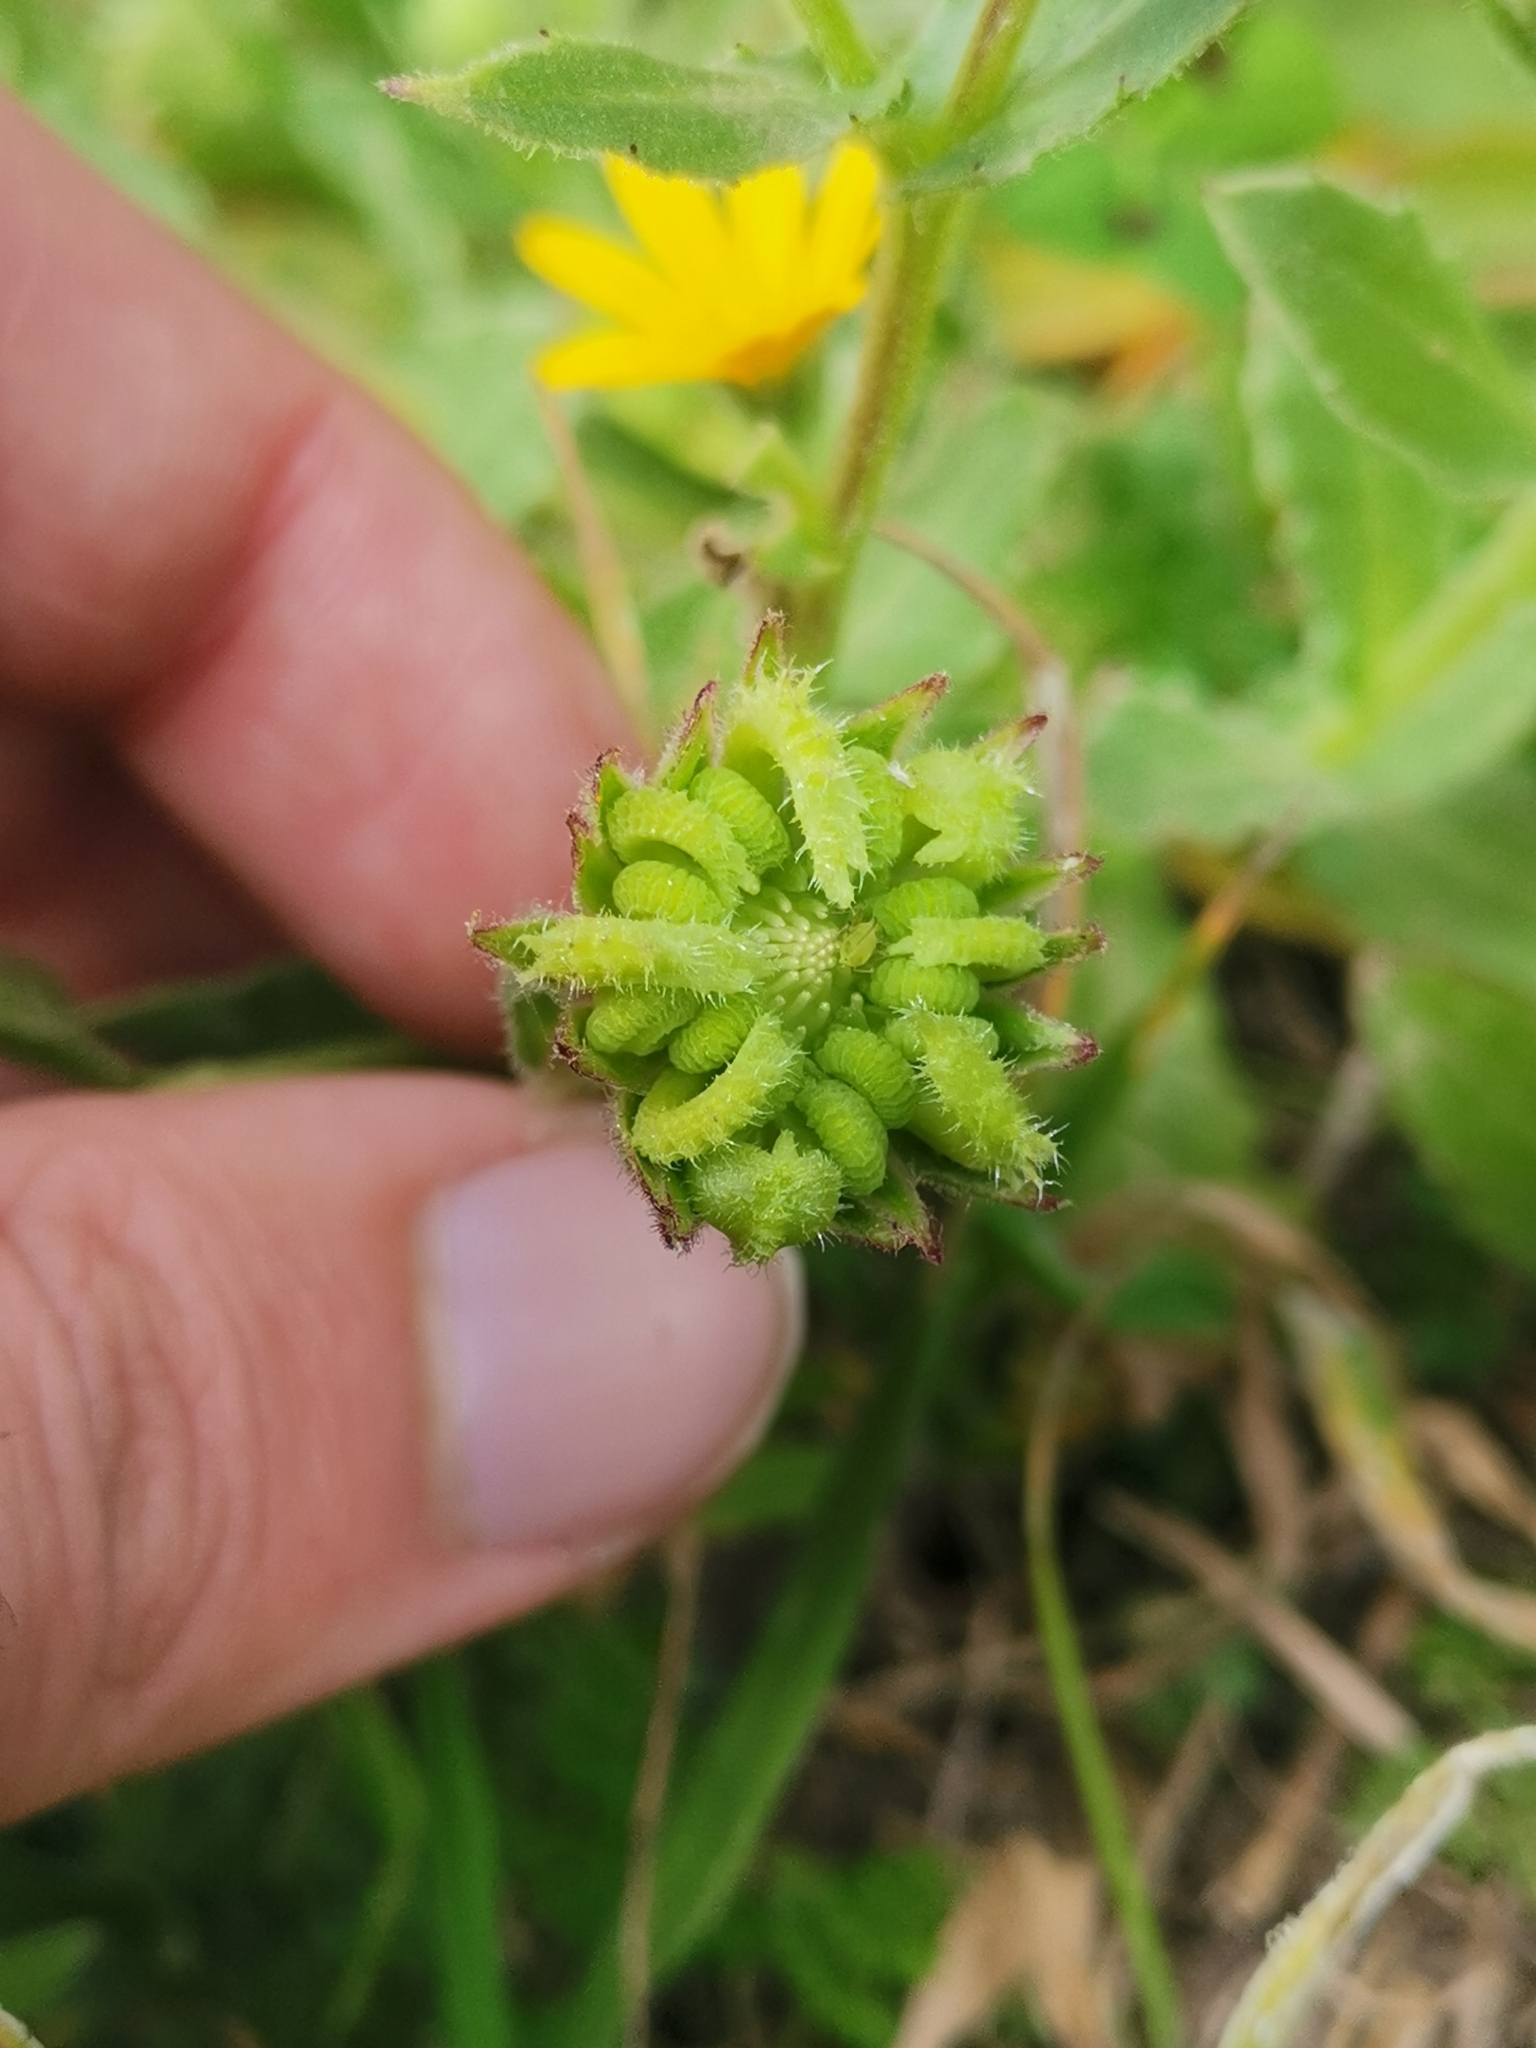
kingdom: Plantae
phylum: Tracheophyta
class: Magnoliopsida
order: Asterales
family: Asteraceae
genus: Calendula
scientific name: Calendula arvensis
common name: Field marigold
